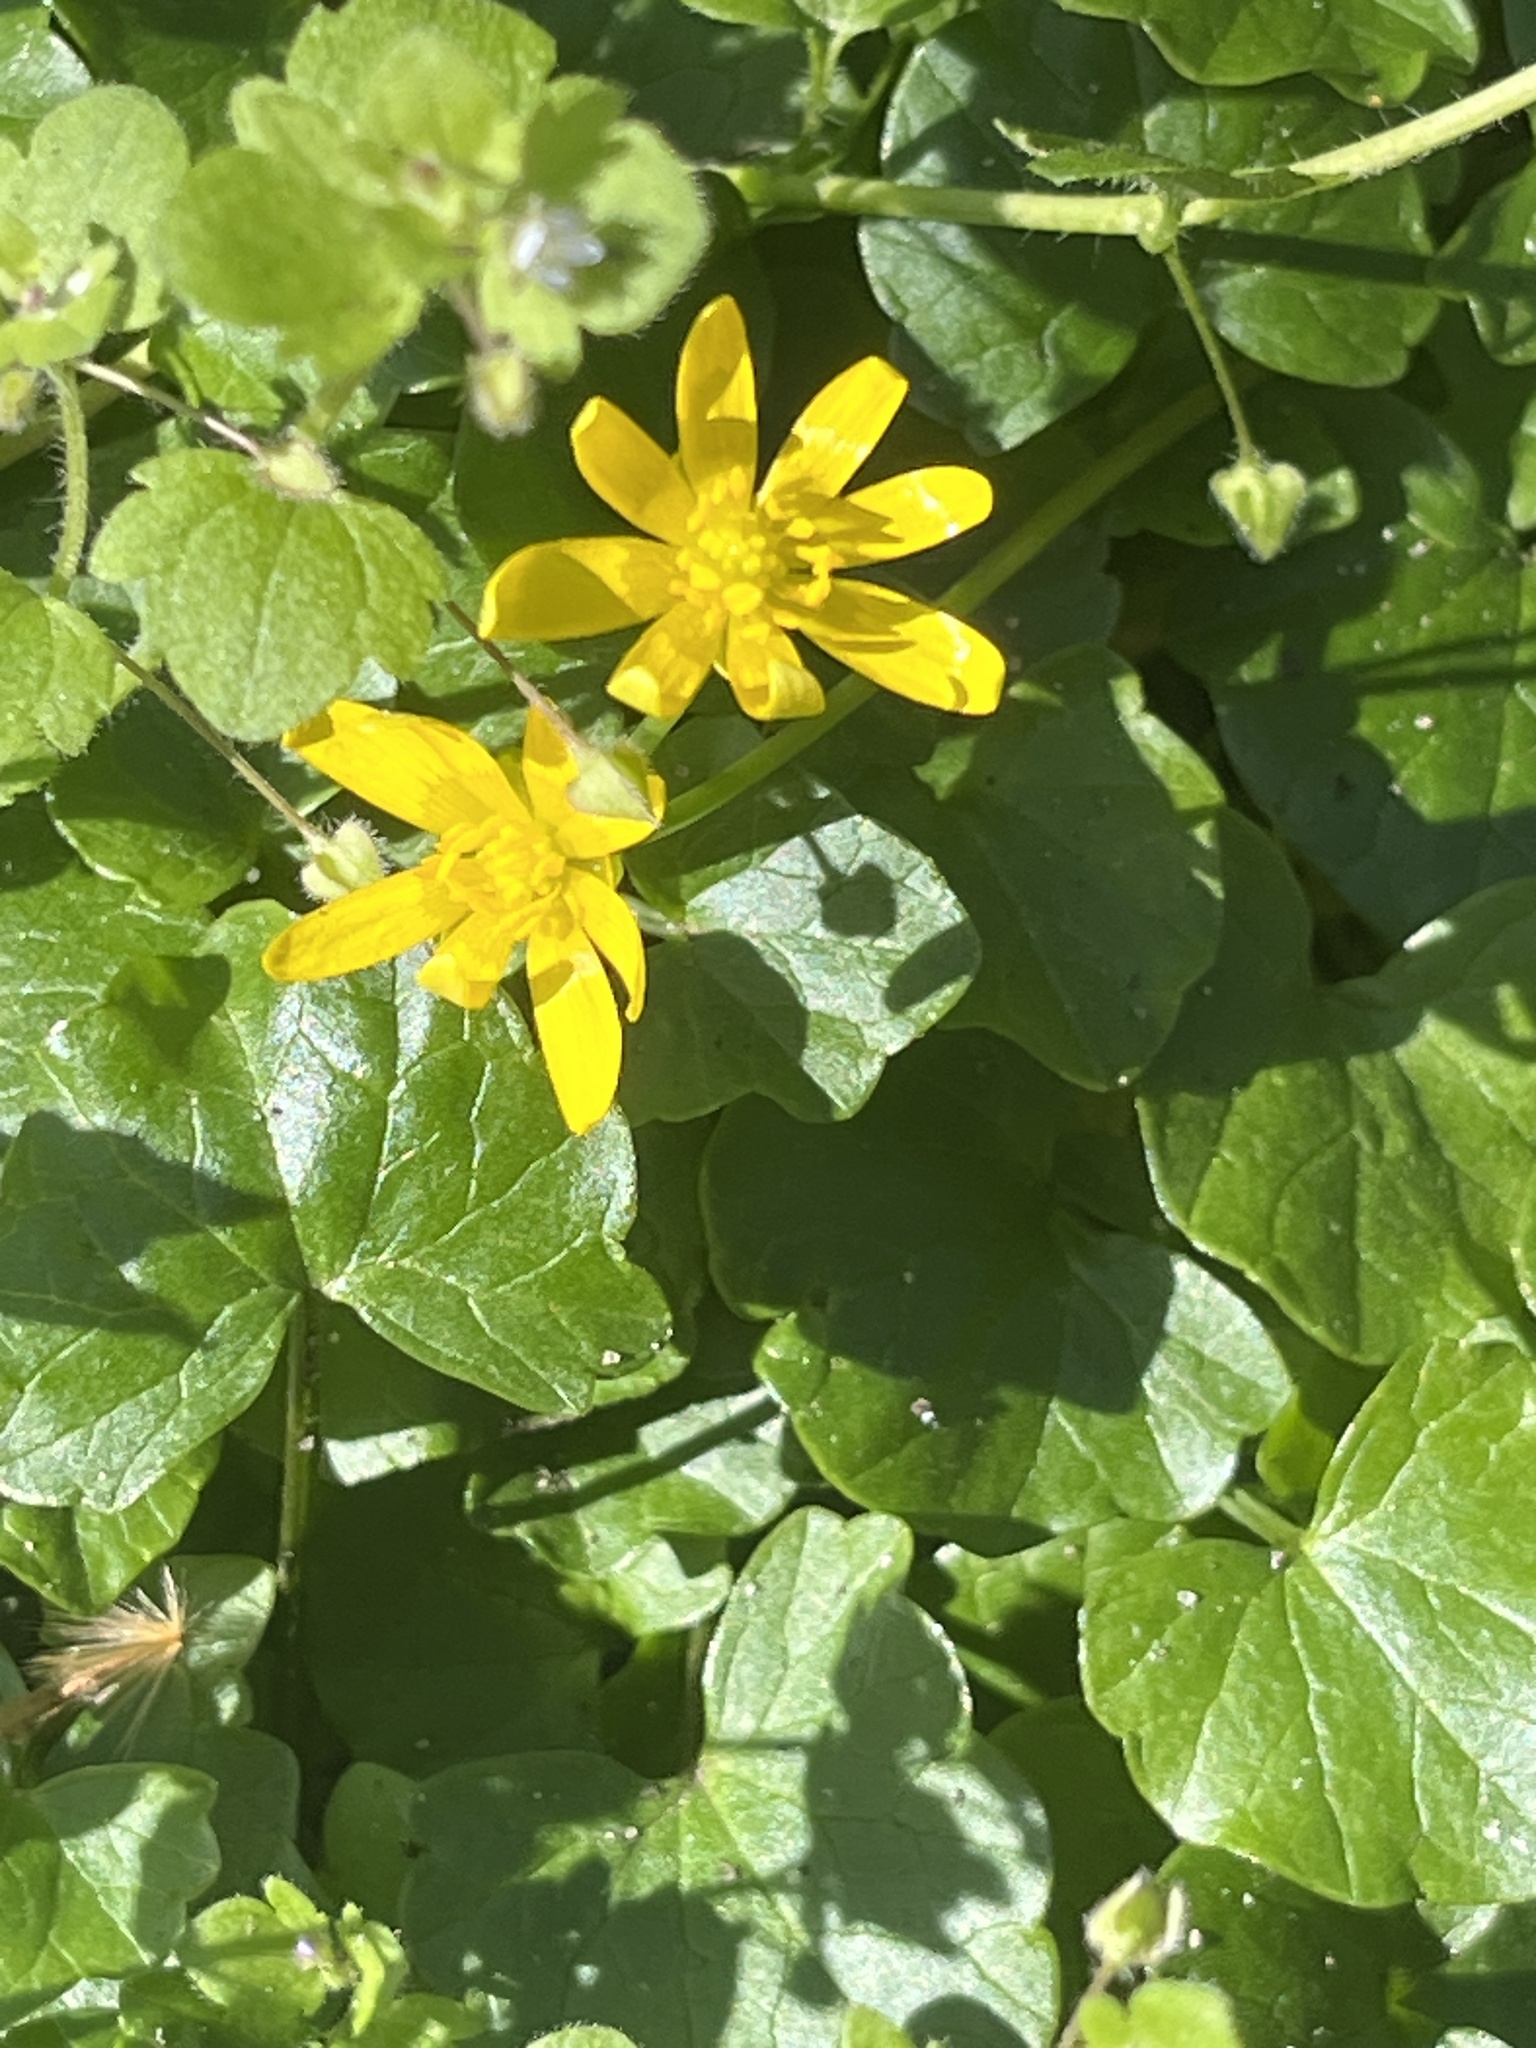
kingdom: Plantae
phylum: Tracheophyta
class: Magnoliopsida
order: Ranunculales
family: Ranunculaceae
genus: Ficaria
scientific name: Ficaria verna
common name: Lesser celandine
